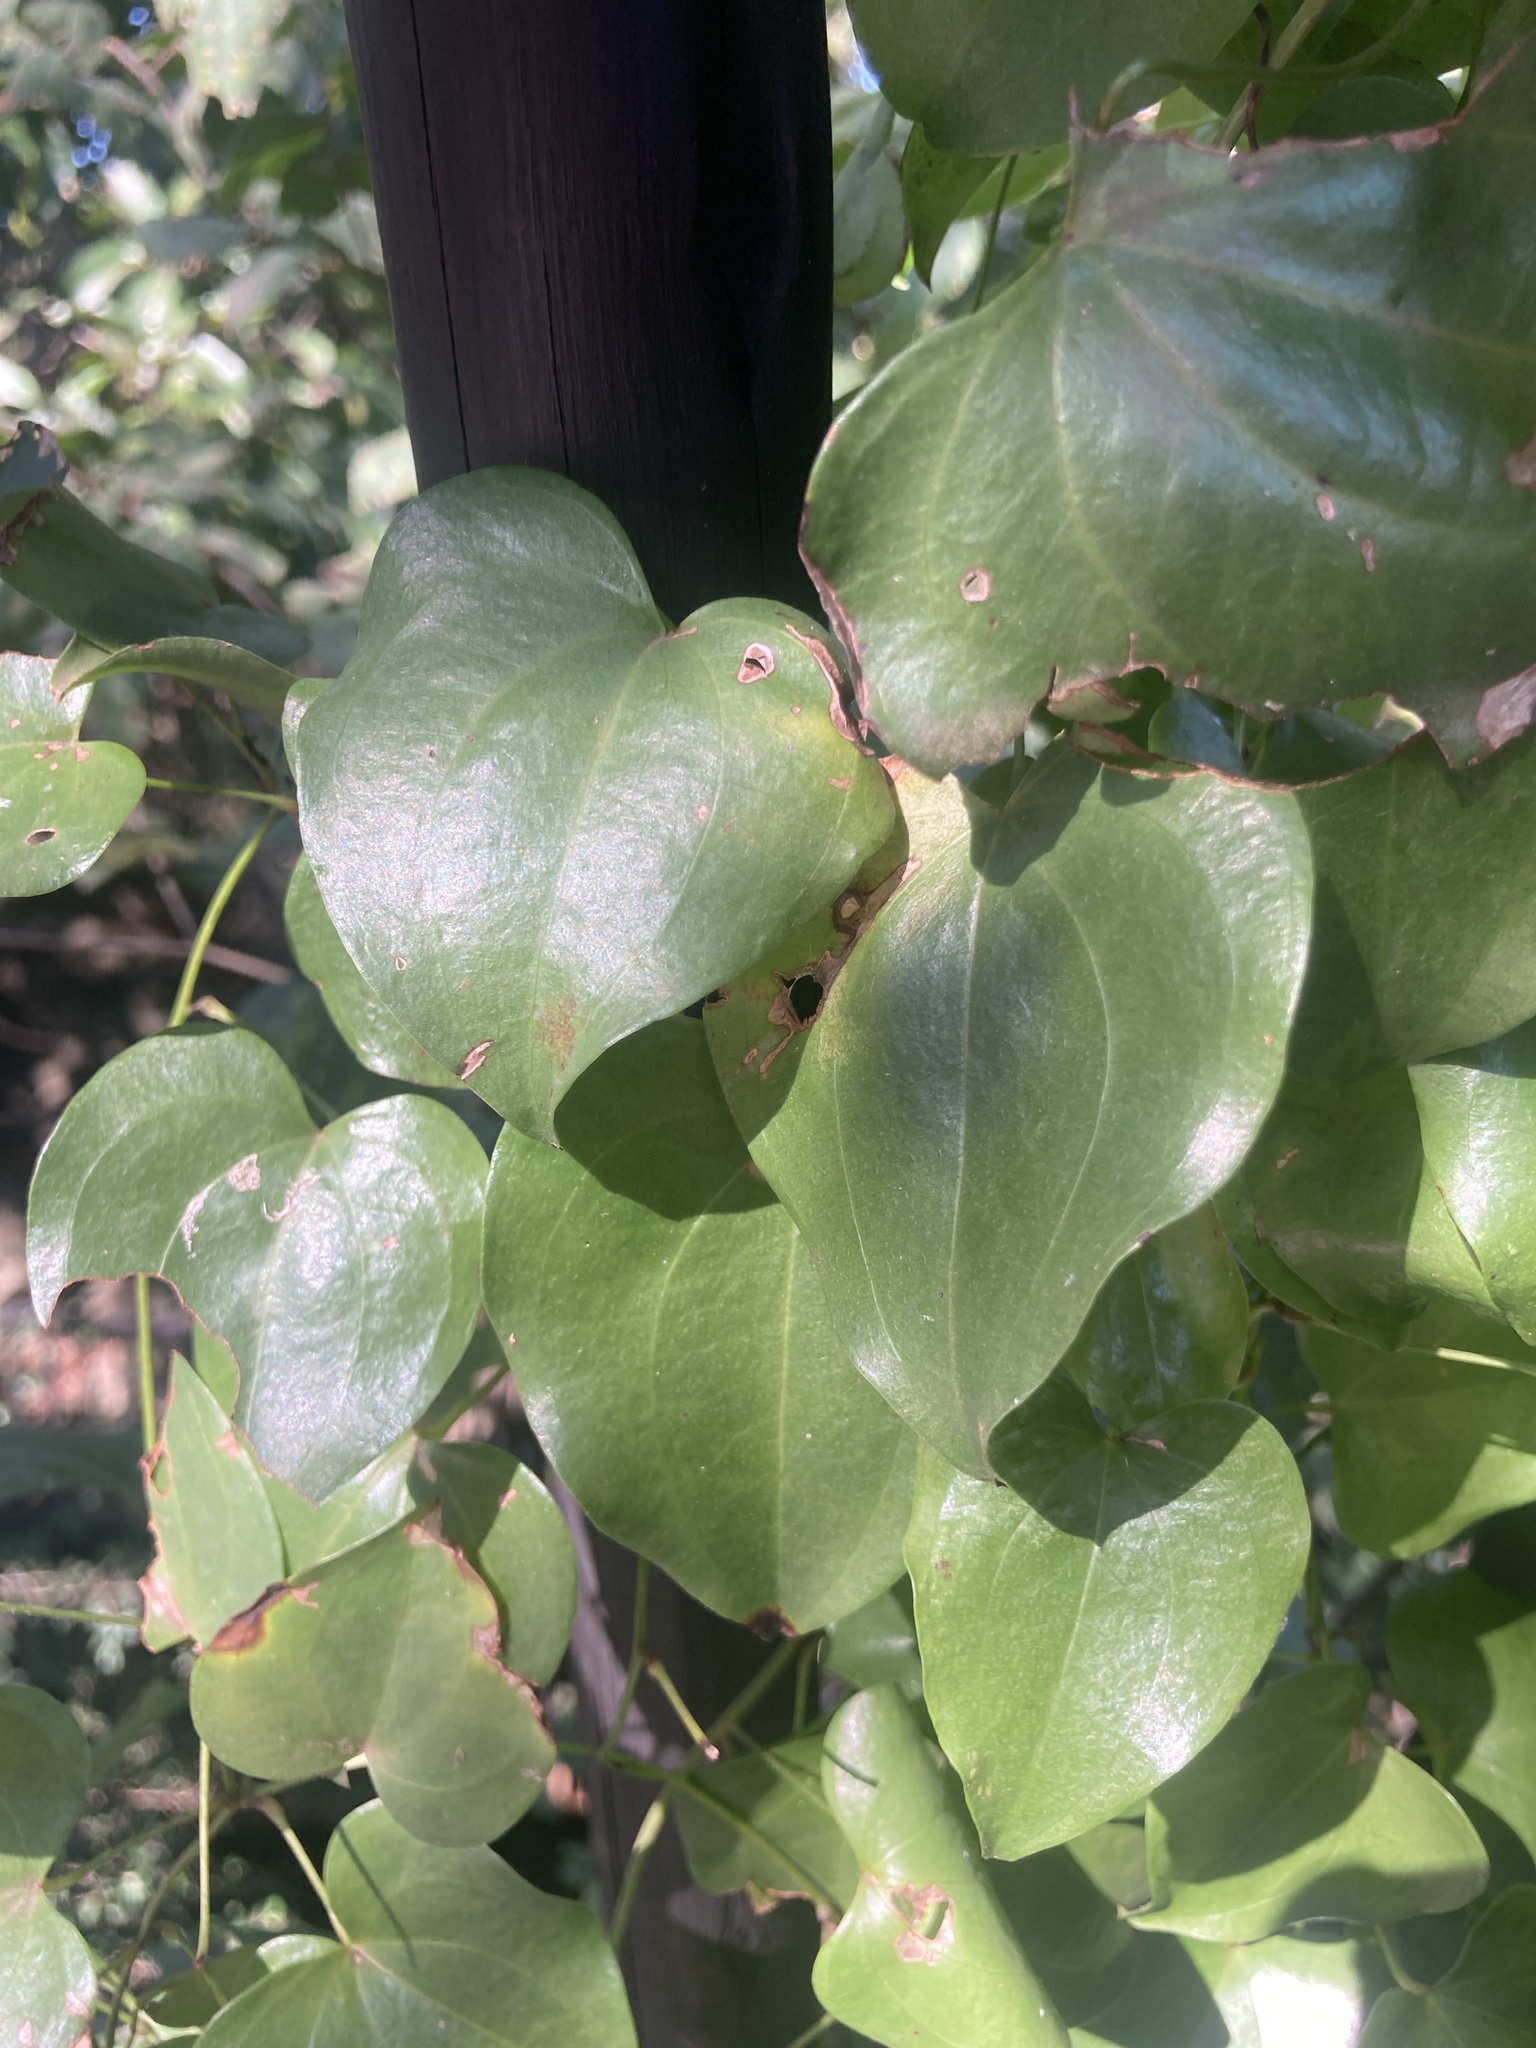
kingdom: Plantae
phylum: Tracheophyta
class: Liliopsida
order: Dioscoreales
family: Dioscoreaceae
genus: Dioscorea
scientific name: Dioscorea cotinifolia
